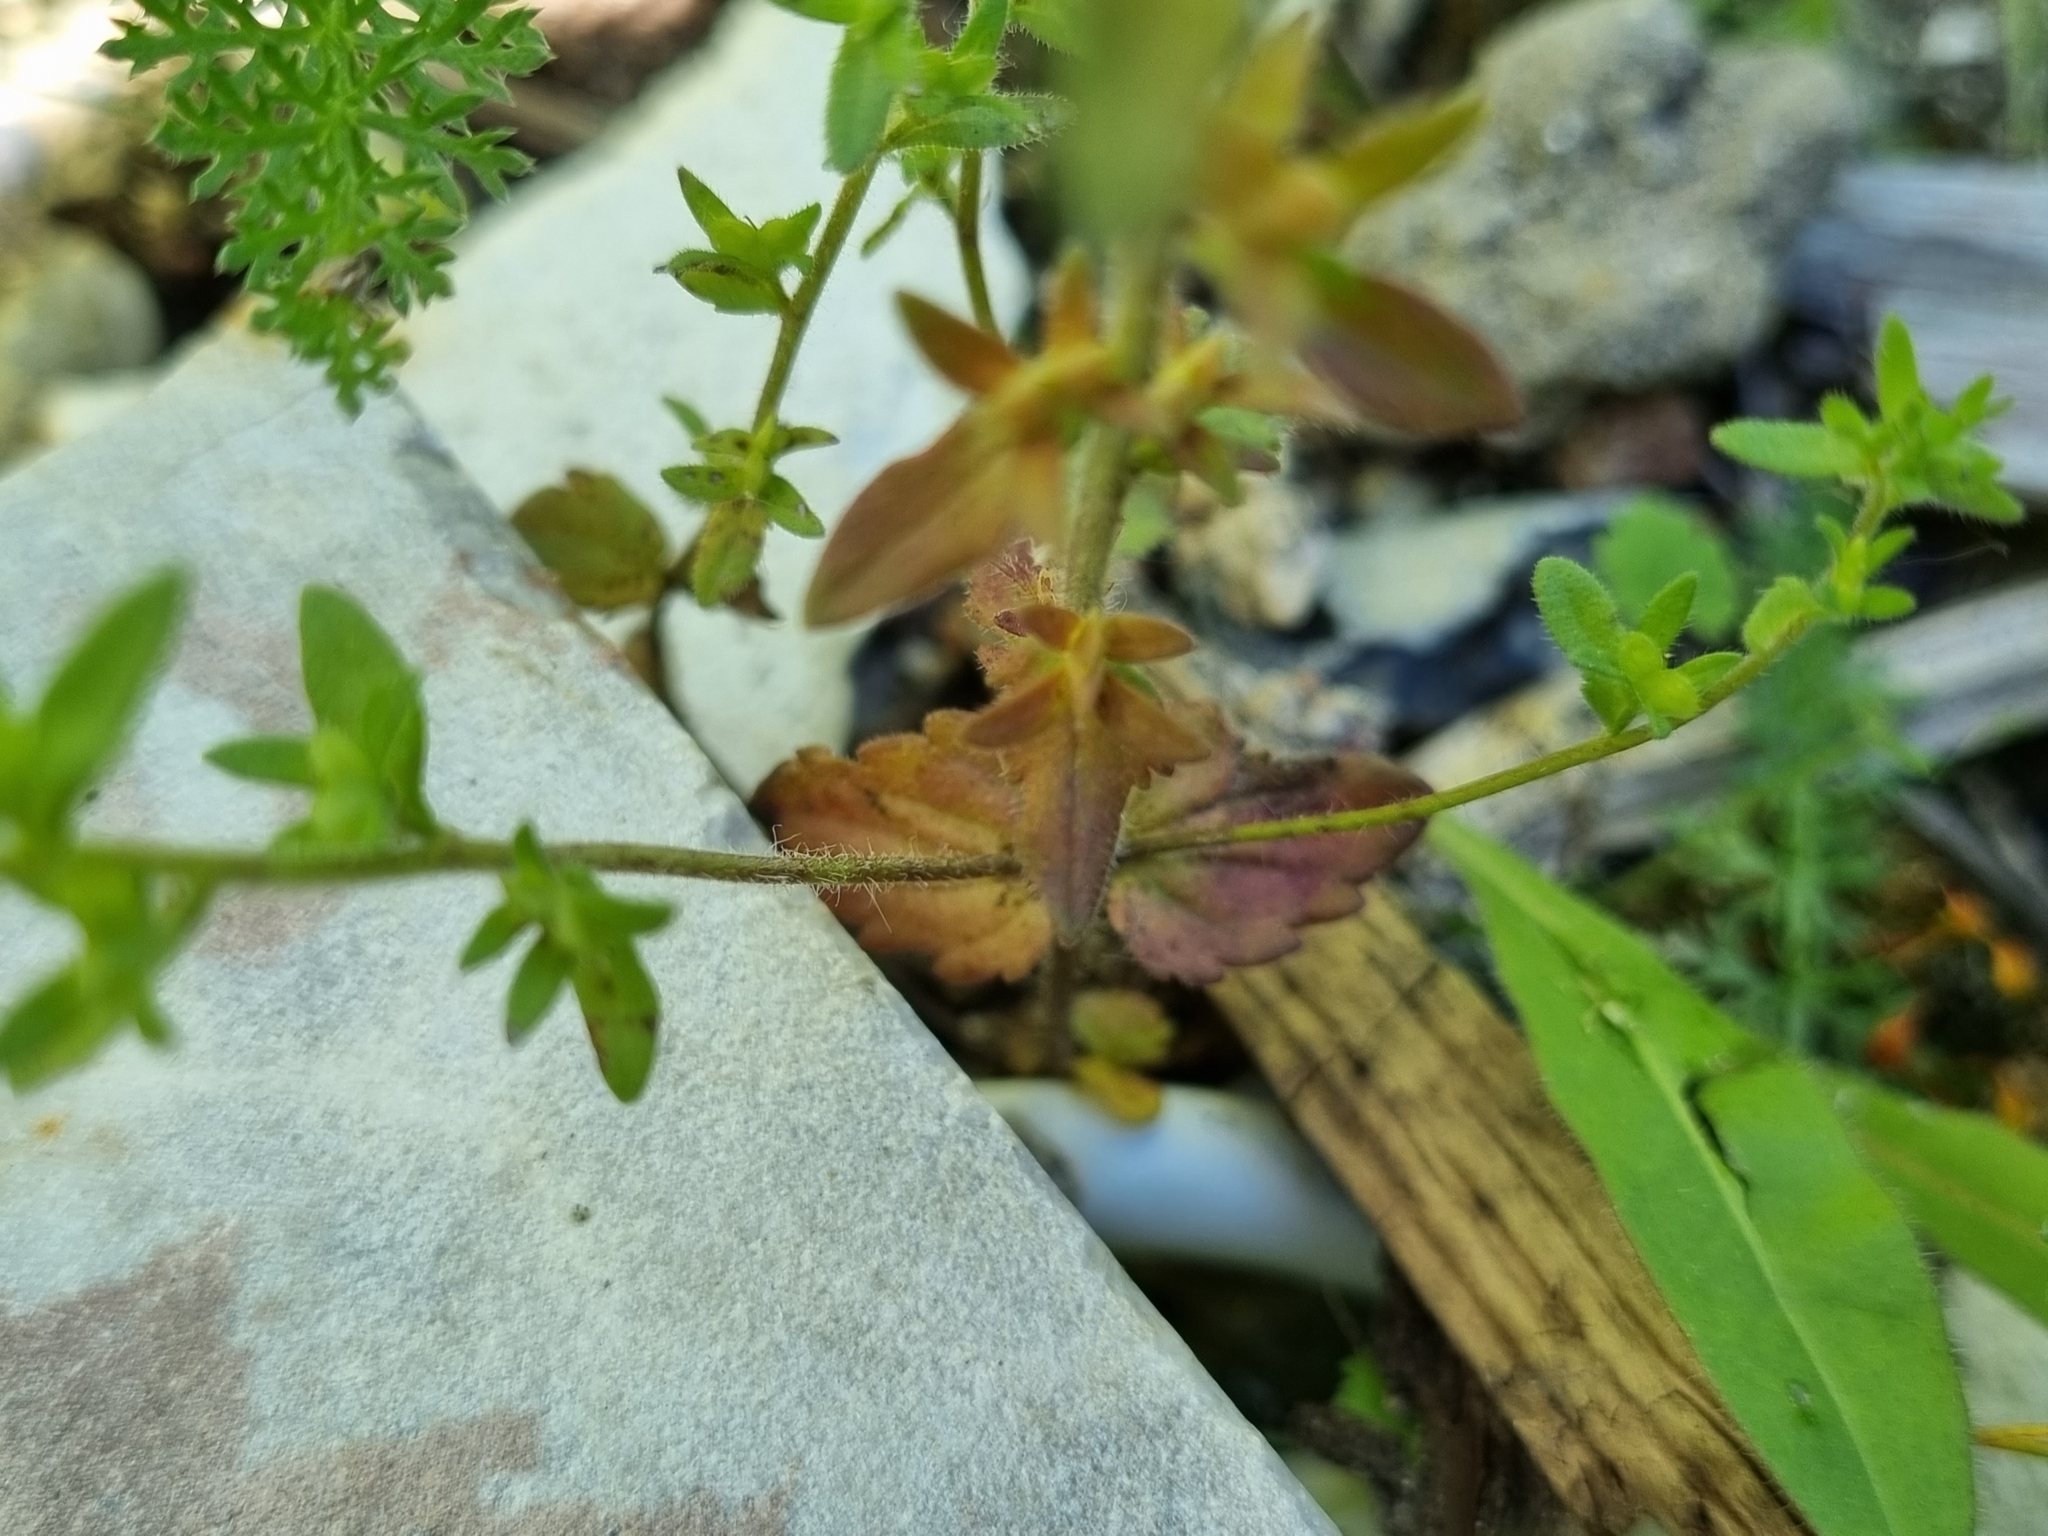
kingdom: Plantae
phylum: Tracheophyta
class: Magnoliopsida
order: Lamiales
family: Plantaginaceae
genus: Veronica
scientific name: Veronica arvensis
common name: Corn speedwell
